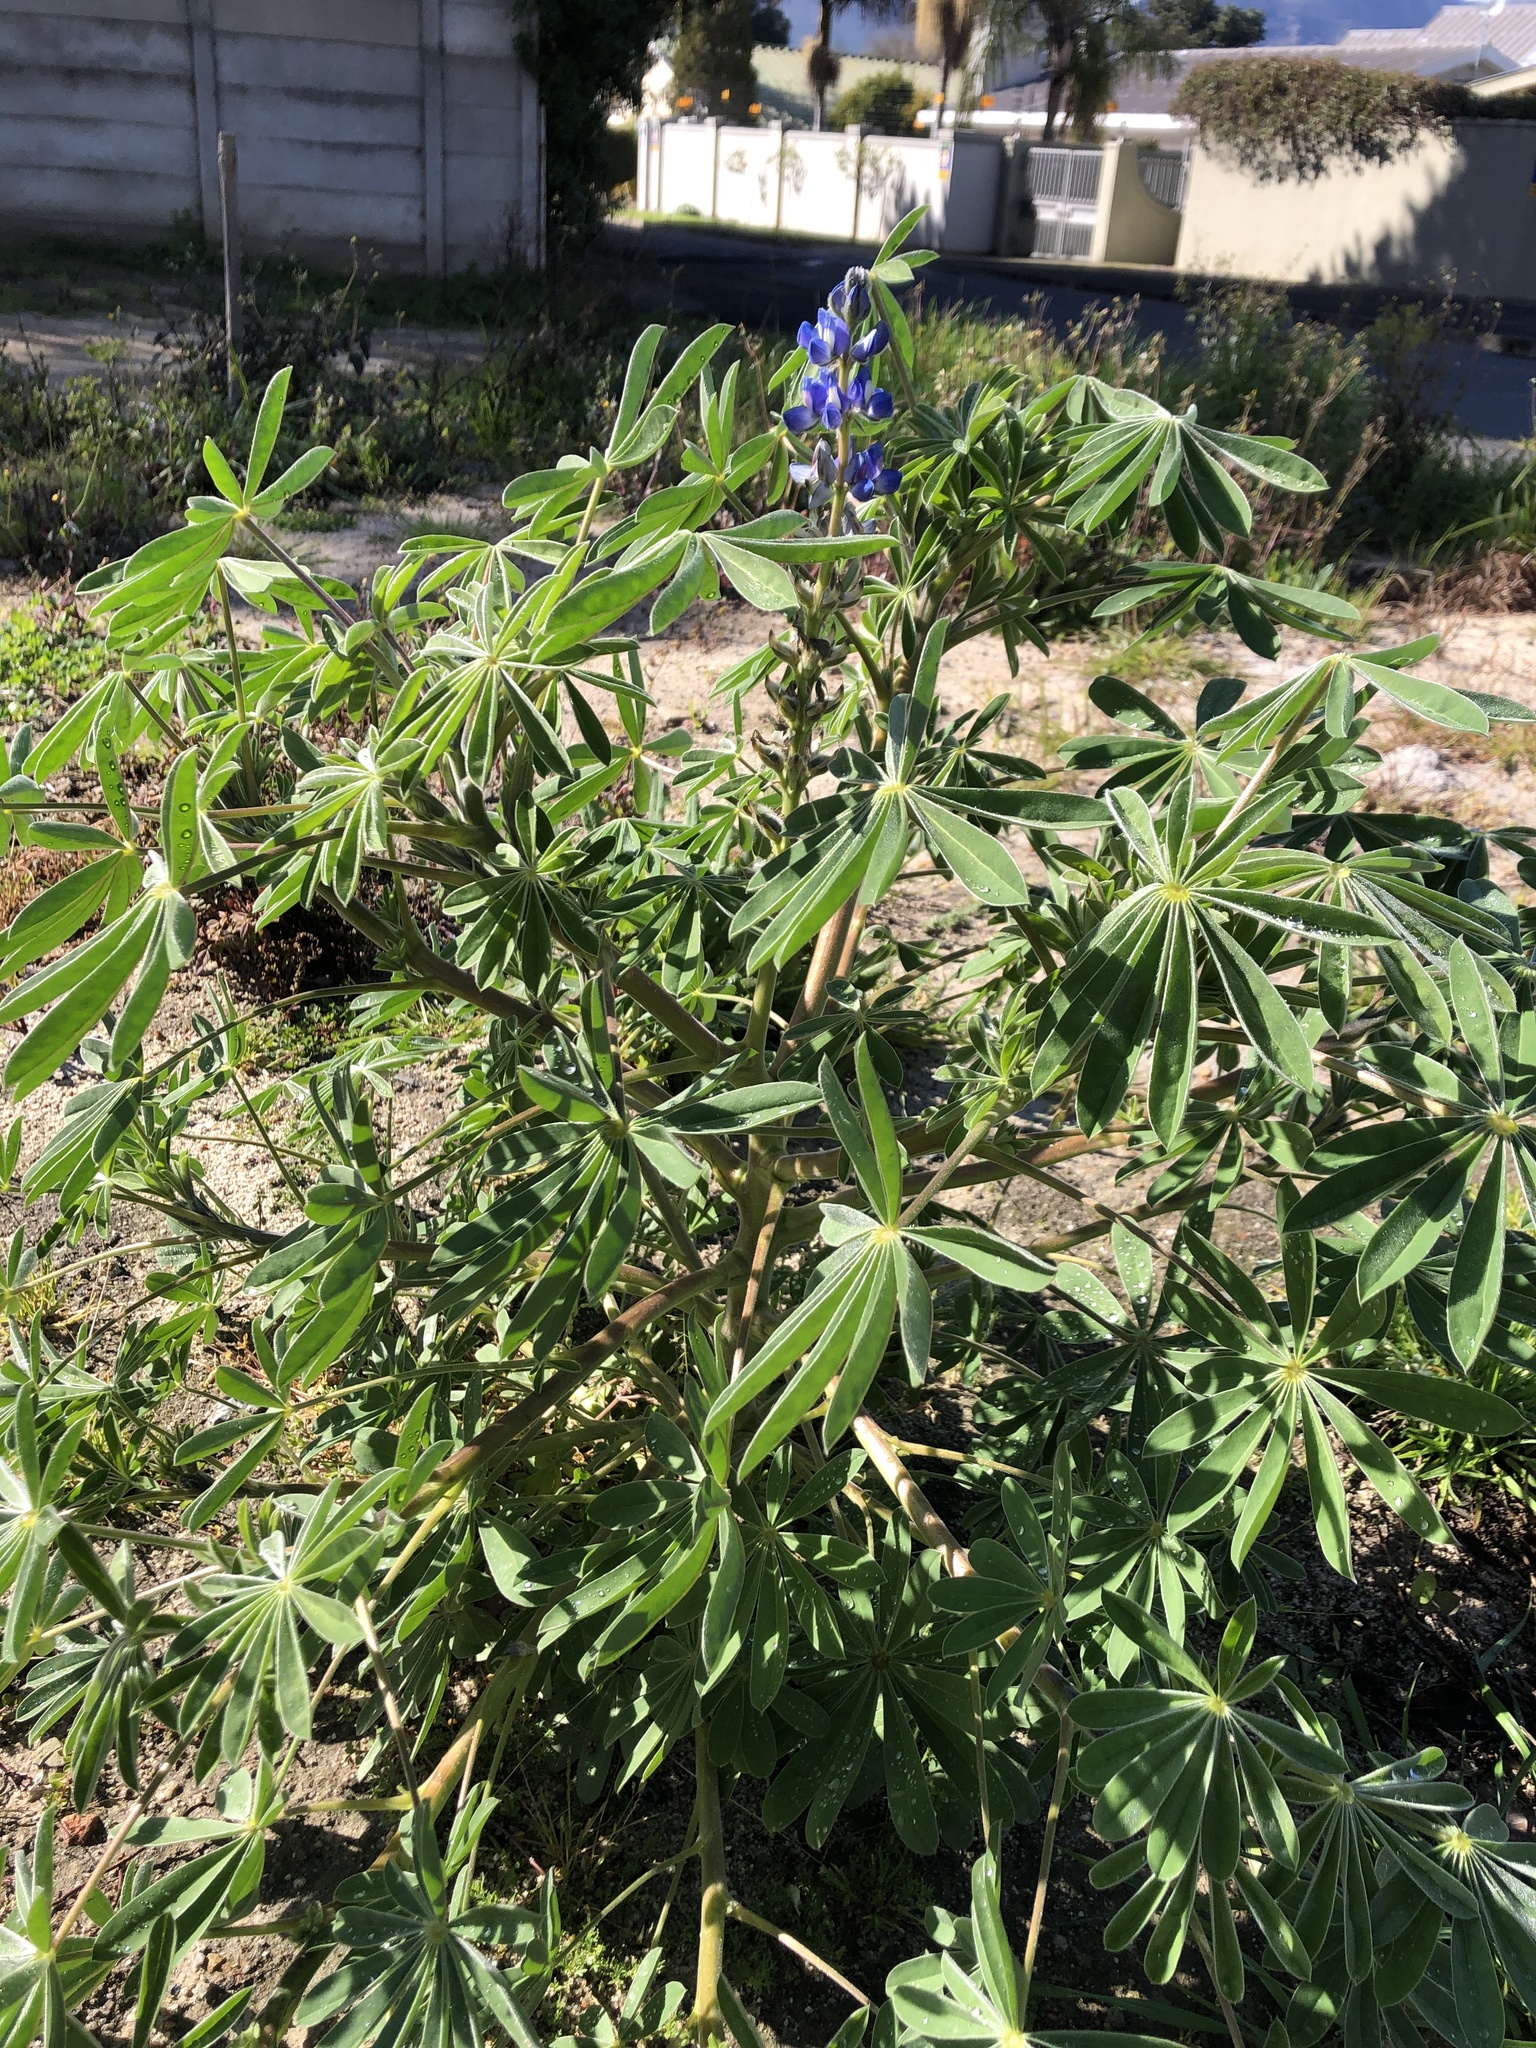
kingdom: Plantae
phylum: Tracheophyta
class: Magnoliopsida
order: Fabales
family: Fabaceae
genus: Lupinus
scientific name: Lupinus cosentinii
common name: Hairy blue lupin
